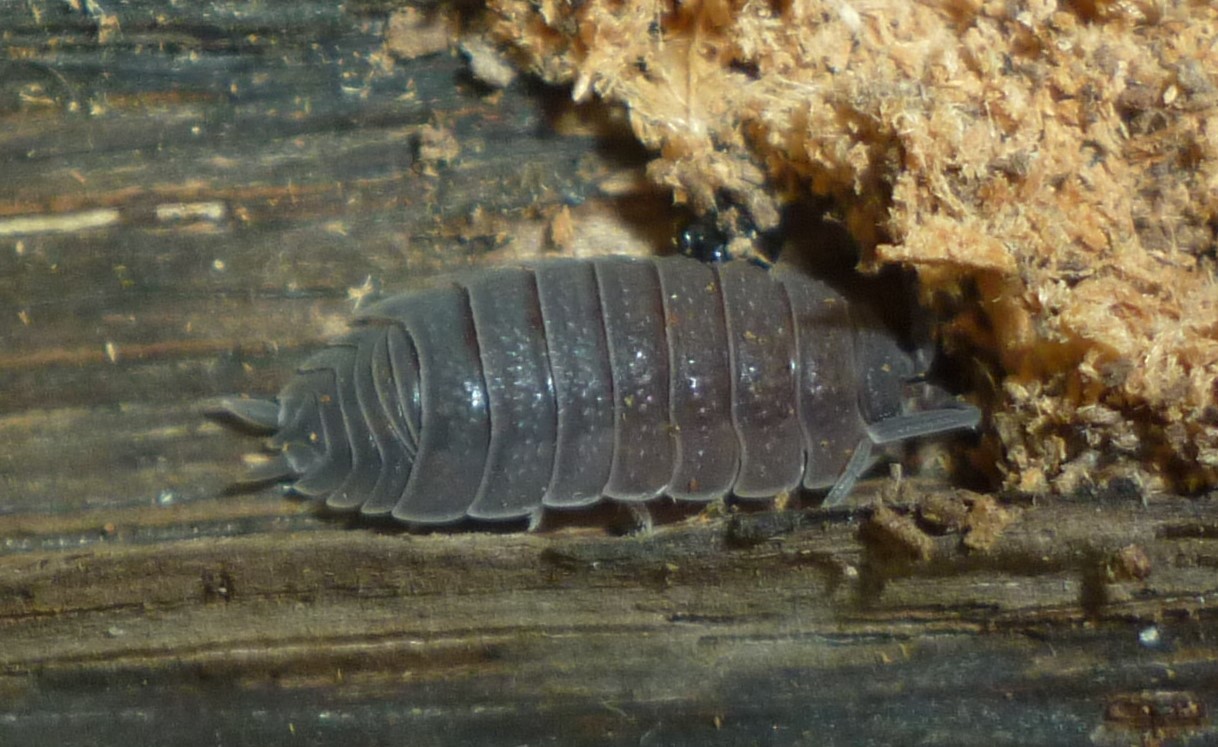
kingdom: Animalia
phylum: Arthropoda
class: Malacostraca
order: Isopoda
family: Porcellionidae
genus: Porcellio
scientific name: Porcellio scaber
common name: Common rough woodlouse
